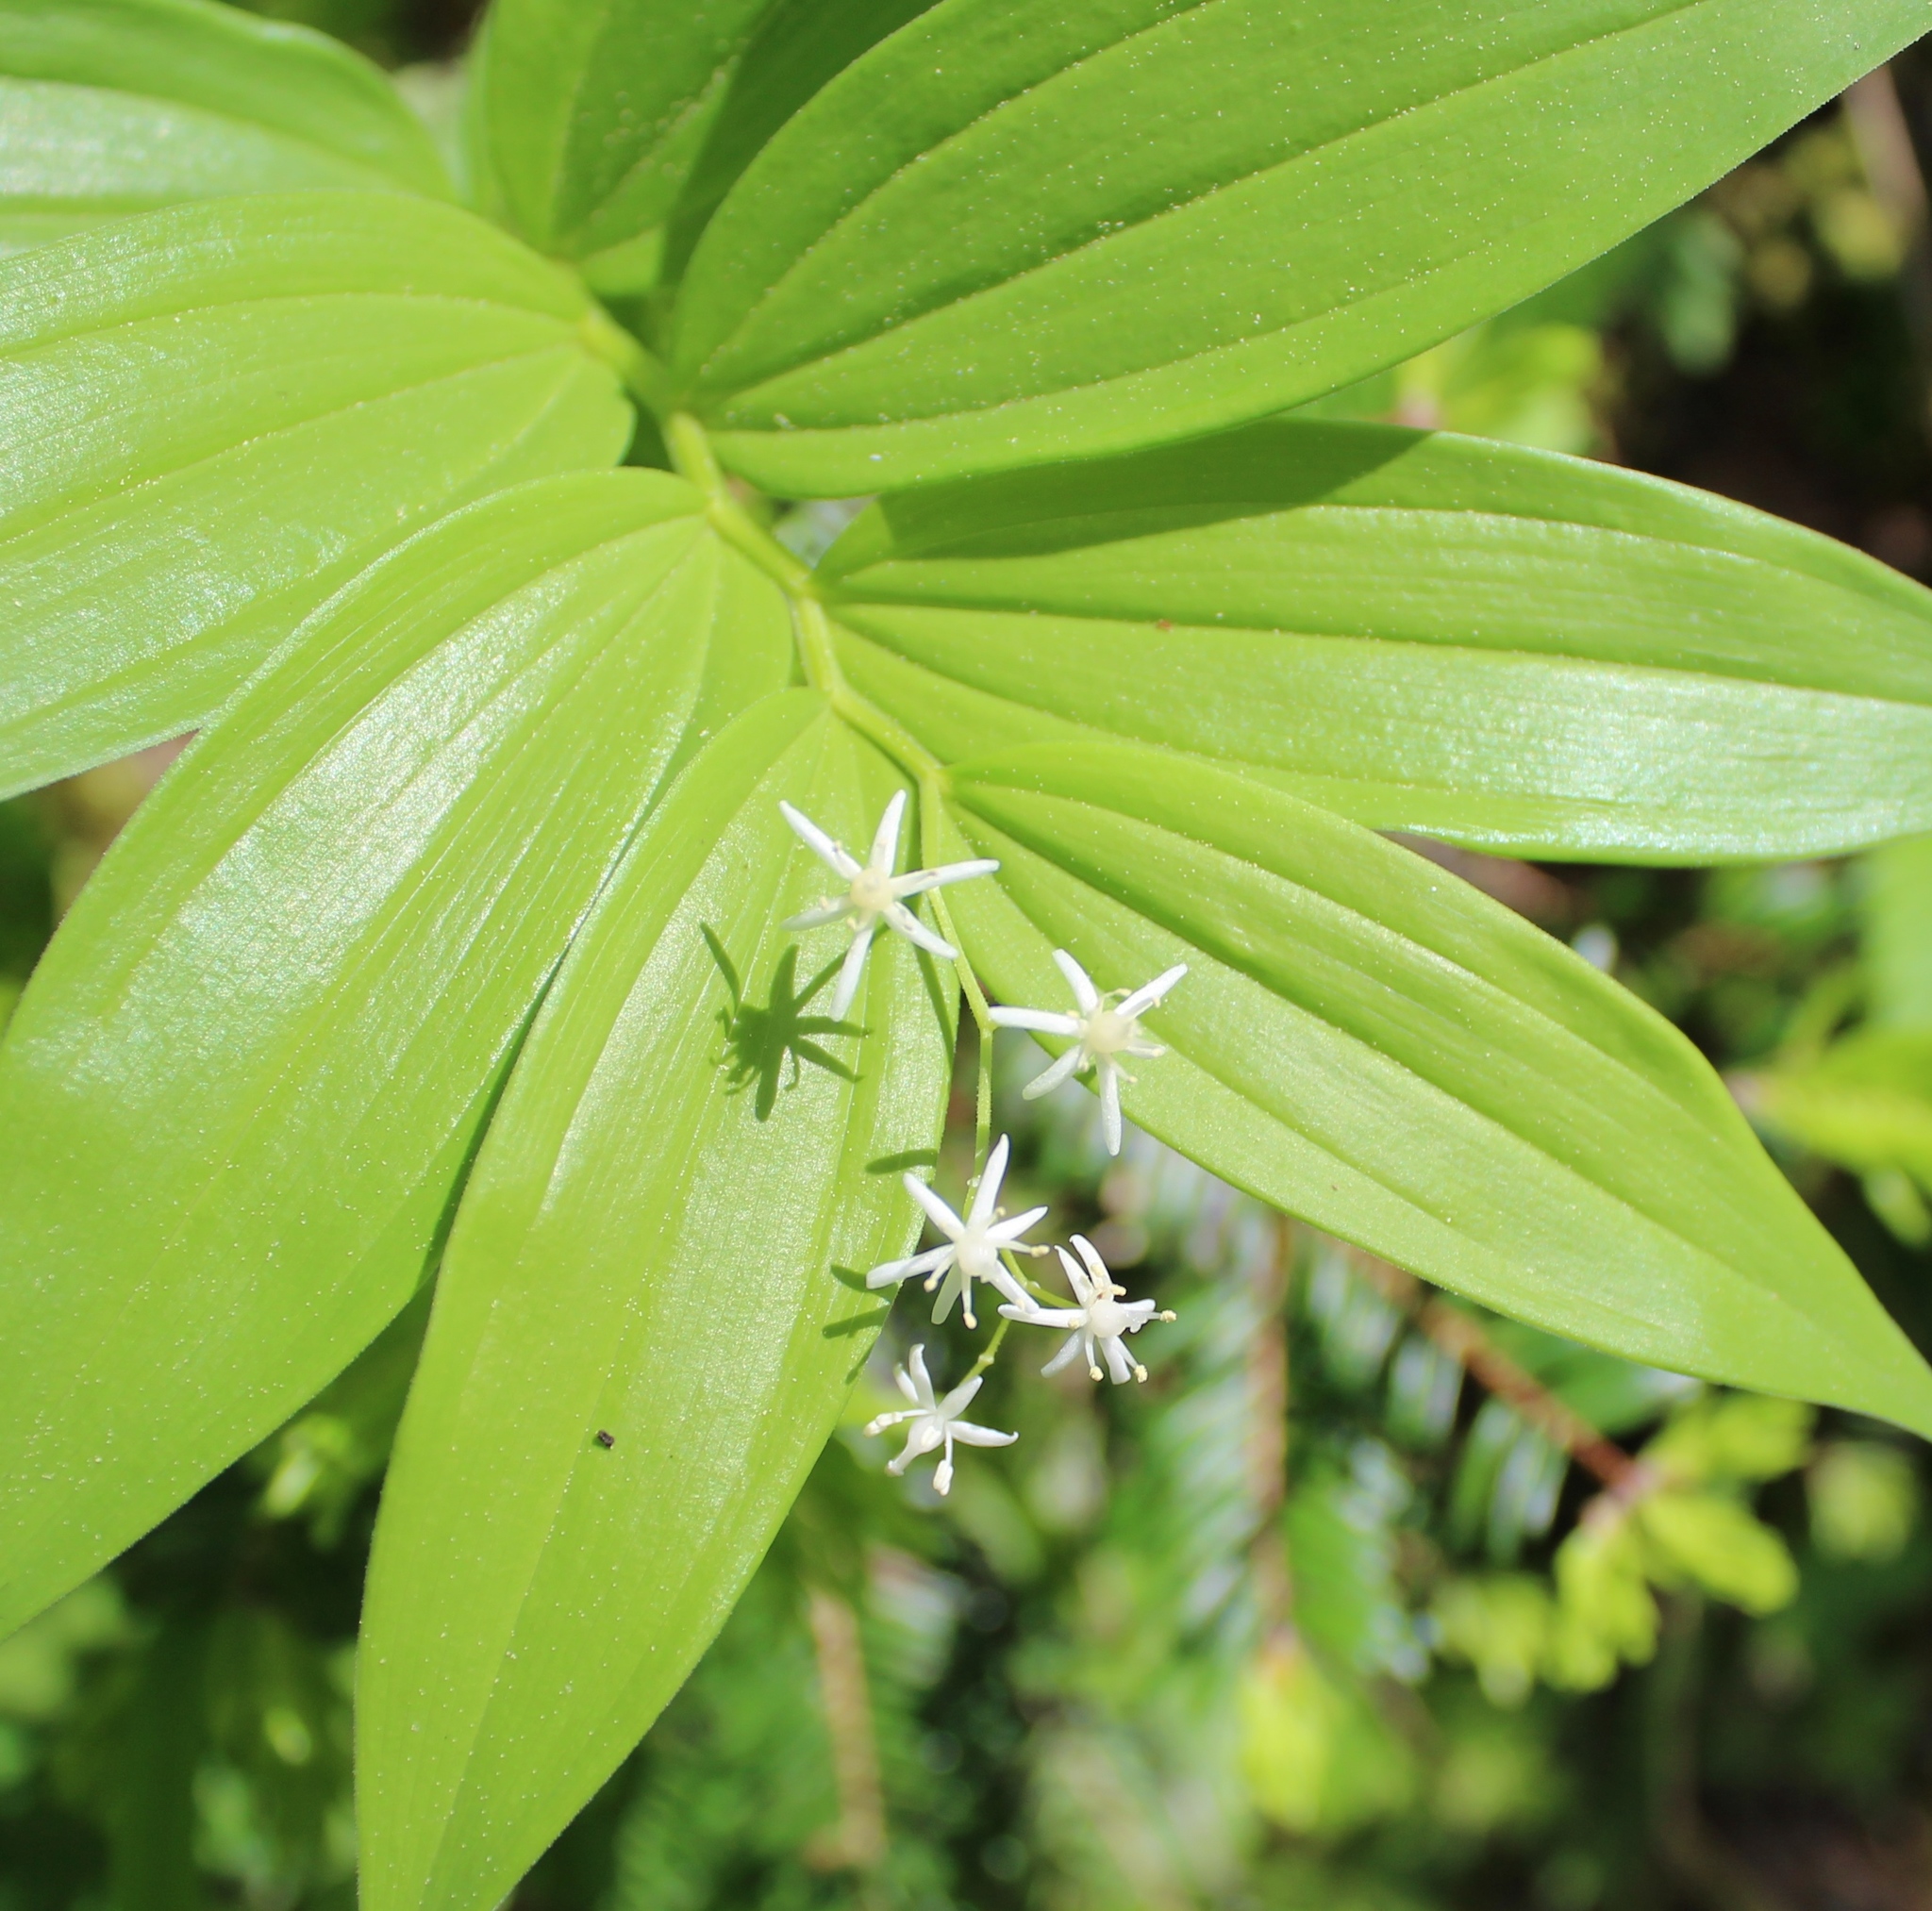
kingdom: Plantae
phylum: Tracheophyta
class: Liliopsida
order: Asparagales
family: Asparagaceae
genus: Maianthemum
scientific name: Maianthemum stellatum
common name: Little false solomon's seal
